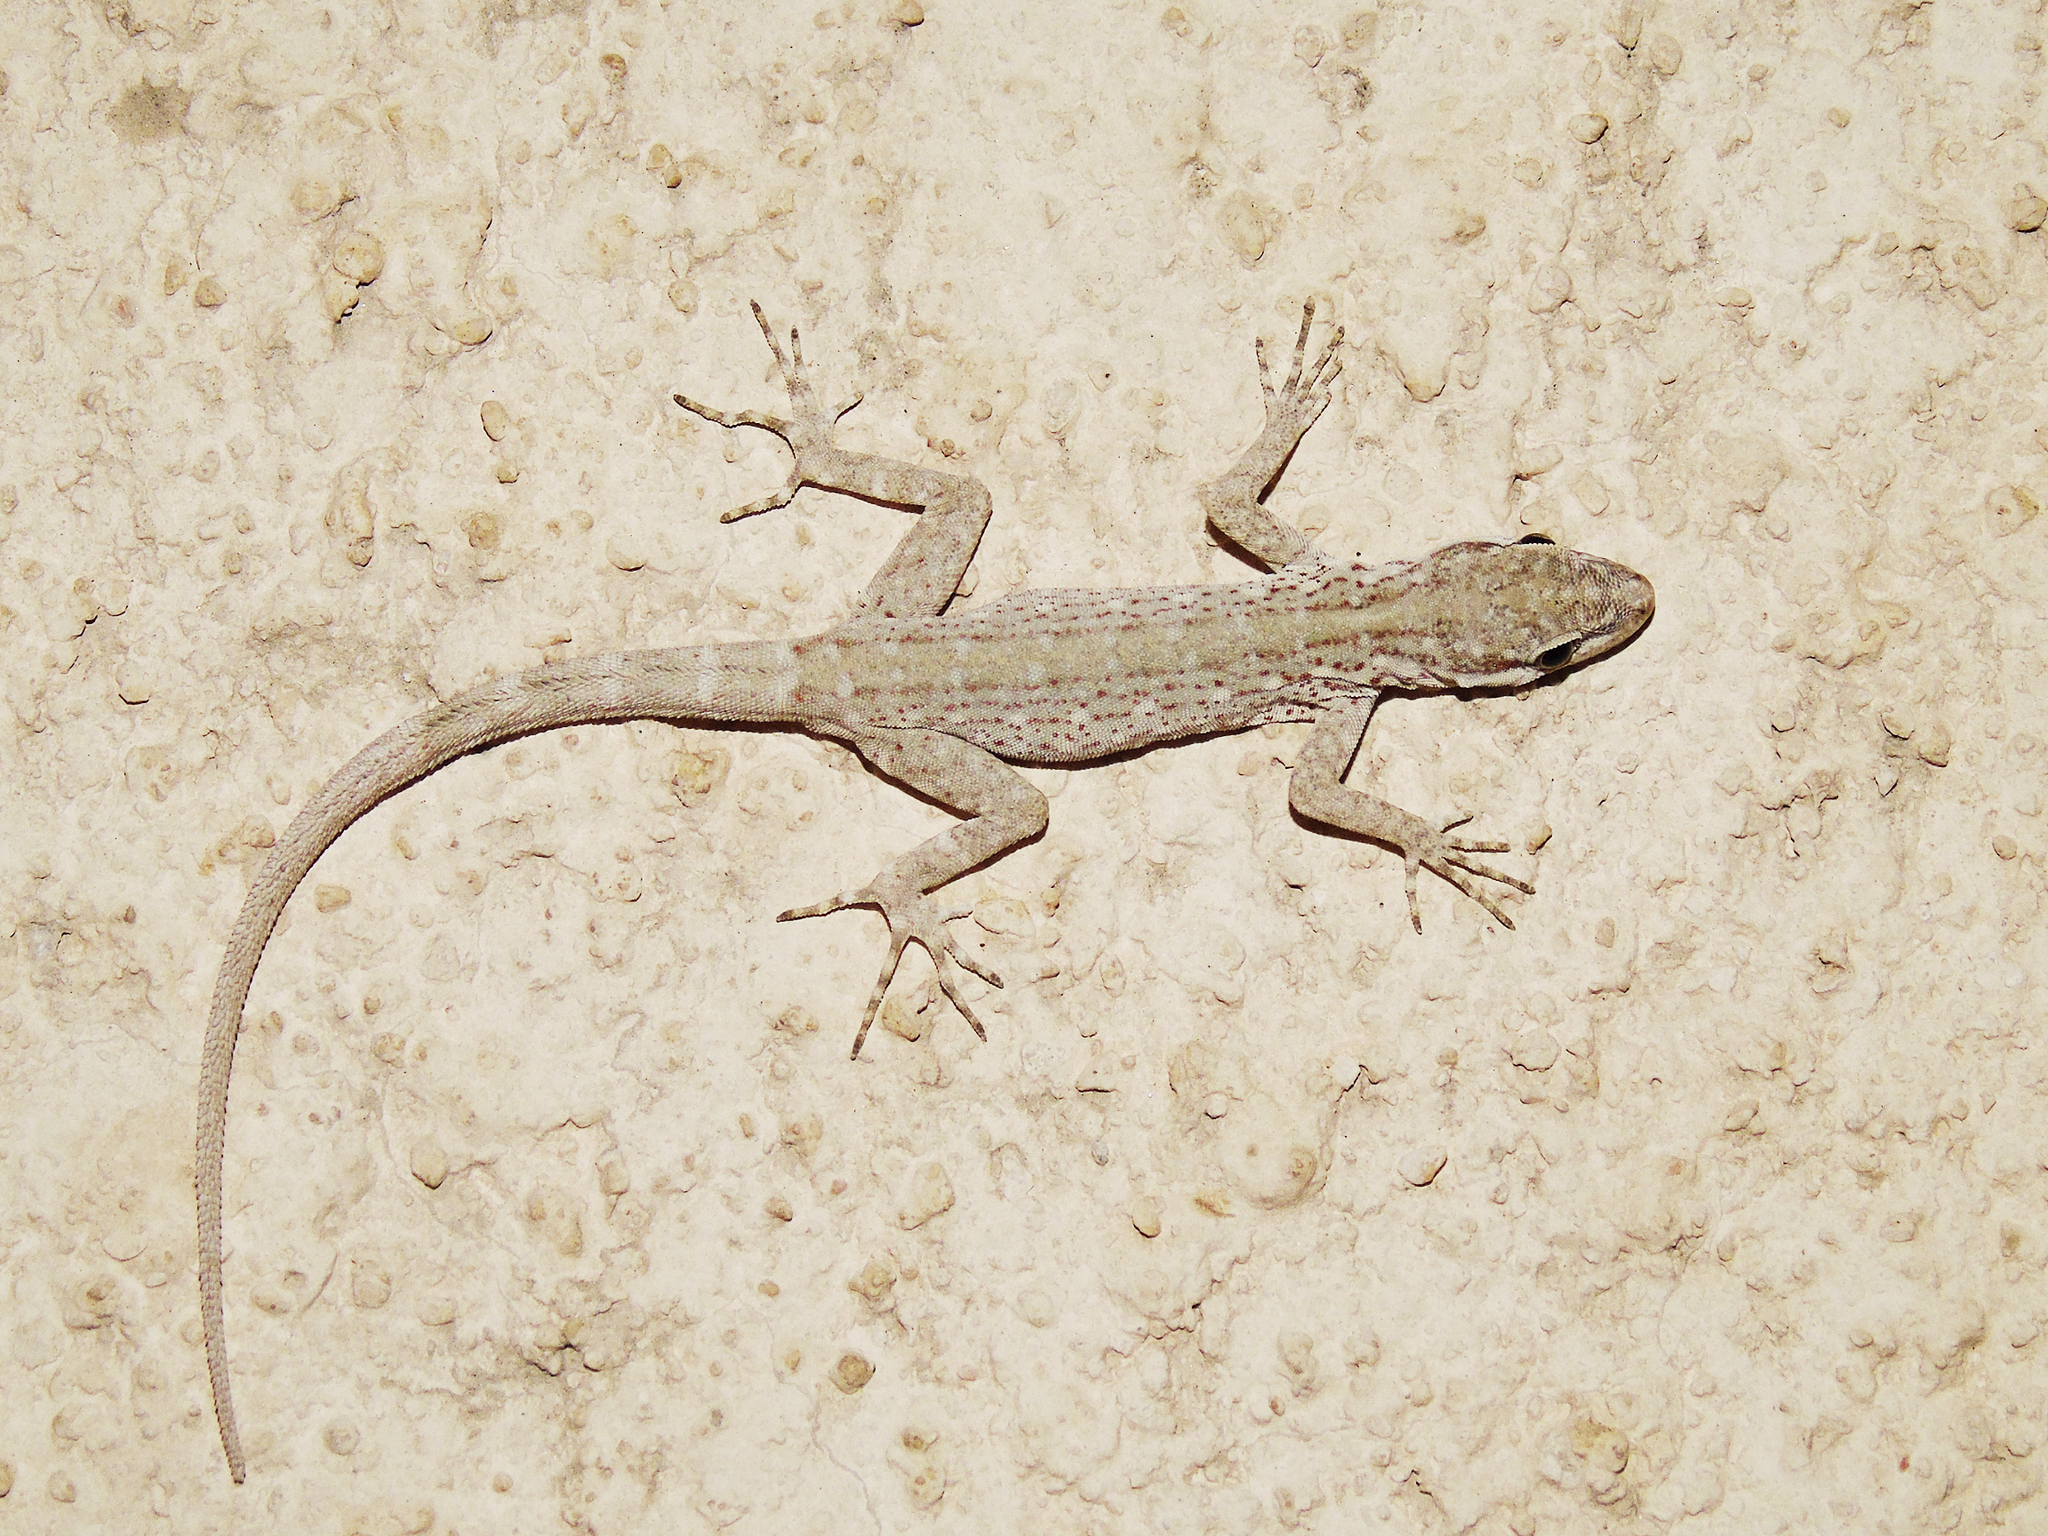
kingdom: Animalia
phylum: Chordata
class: Squamata
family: Sphaerodactylidae
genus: Pristurus
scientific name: Pristurus gallagheri
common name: Gallagher’s rock gecko
